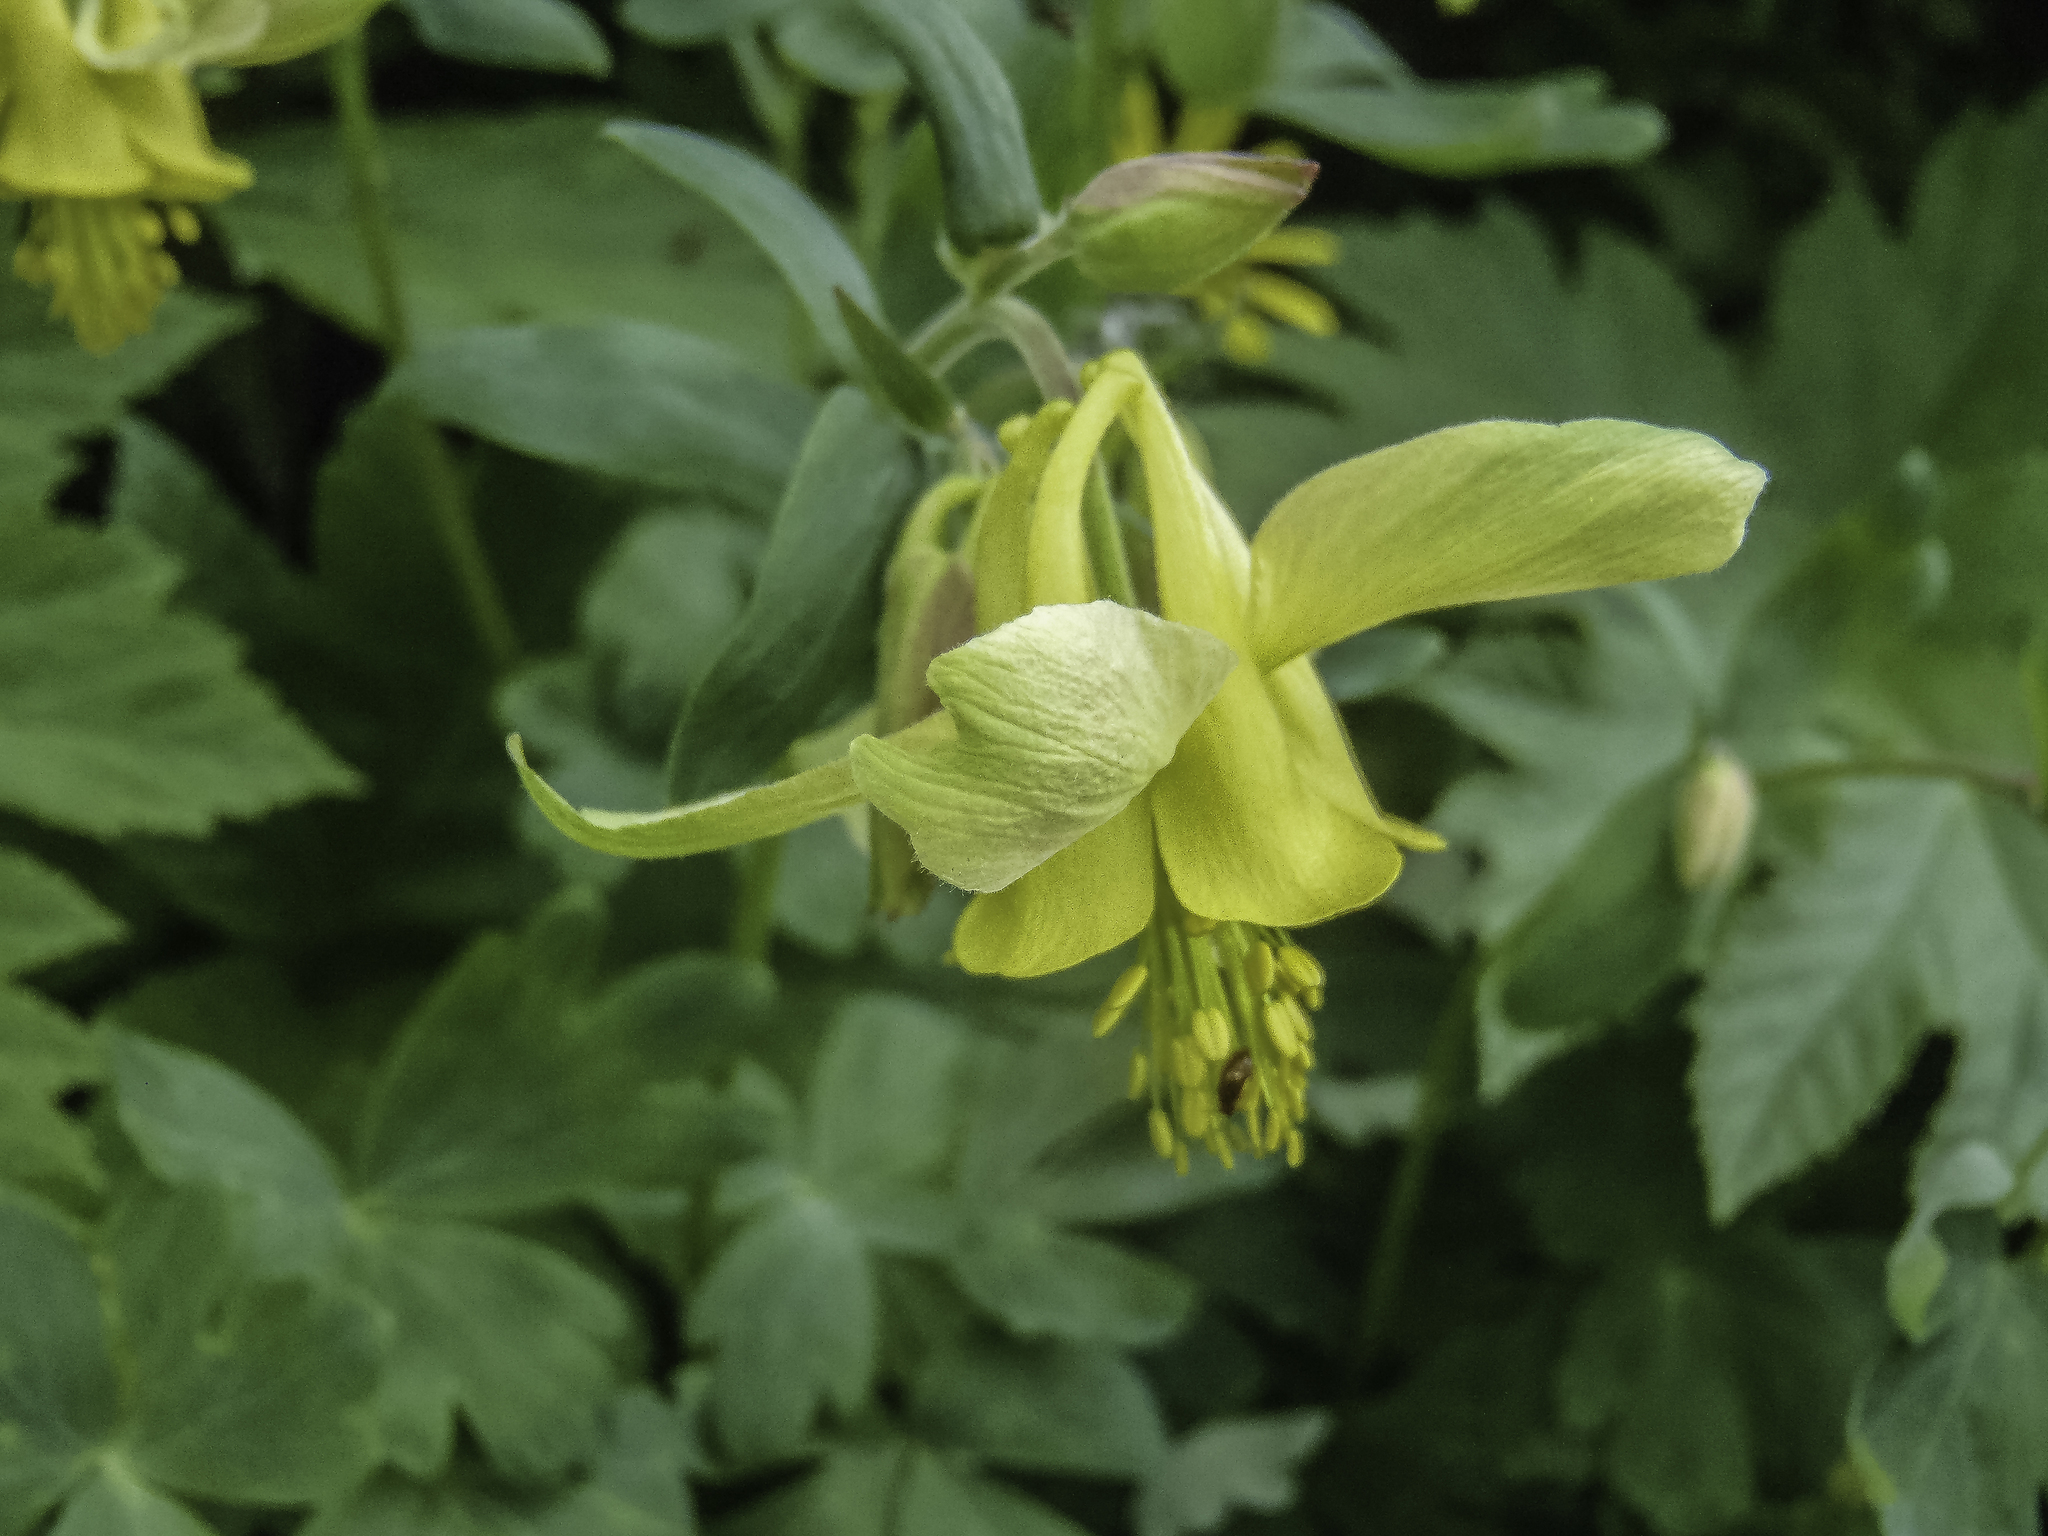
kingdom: Plantae
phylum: Tracheophyta
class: Magnoliopsida
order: Ranunculales
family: Ranunculaceae
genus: Aquilegia
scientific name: Aquilegia flavescens
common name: Yellow columbine
